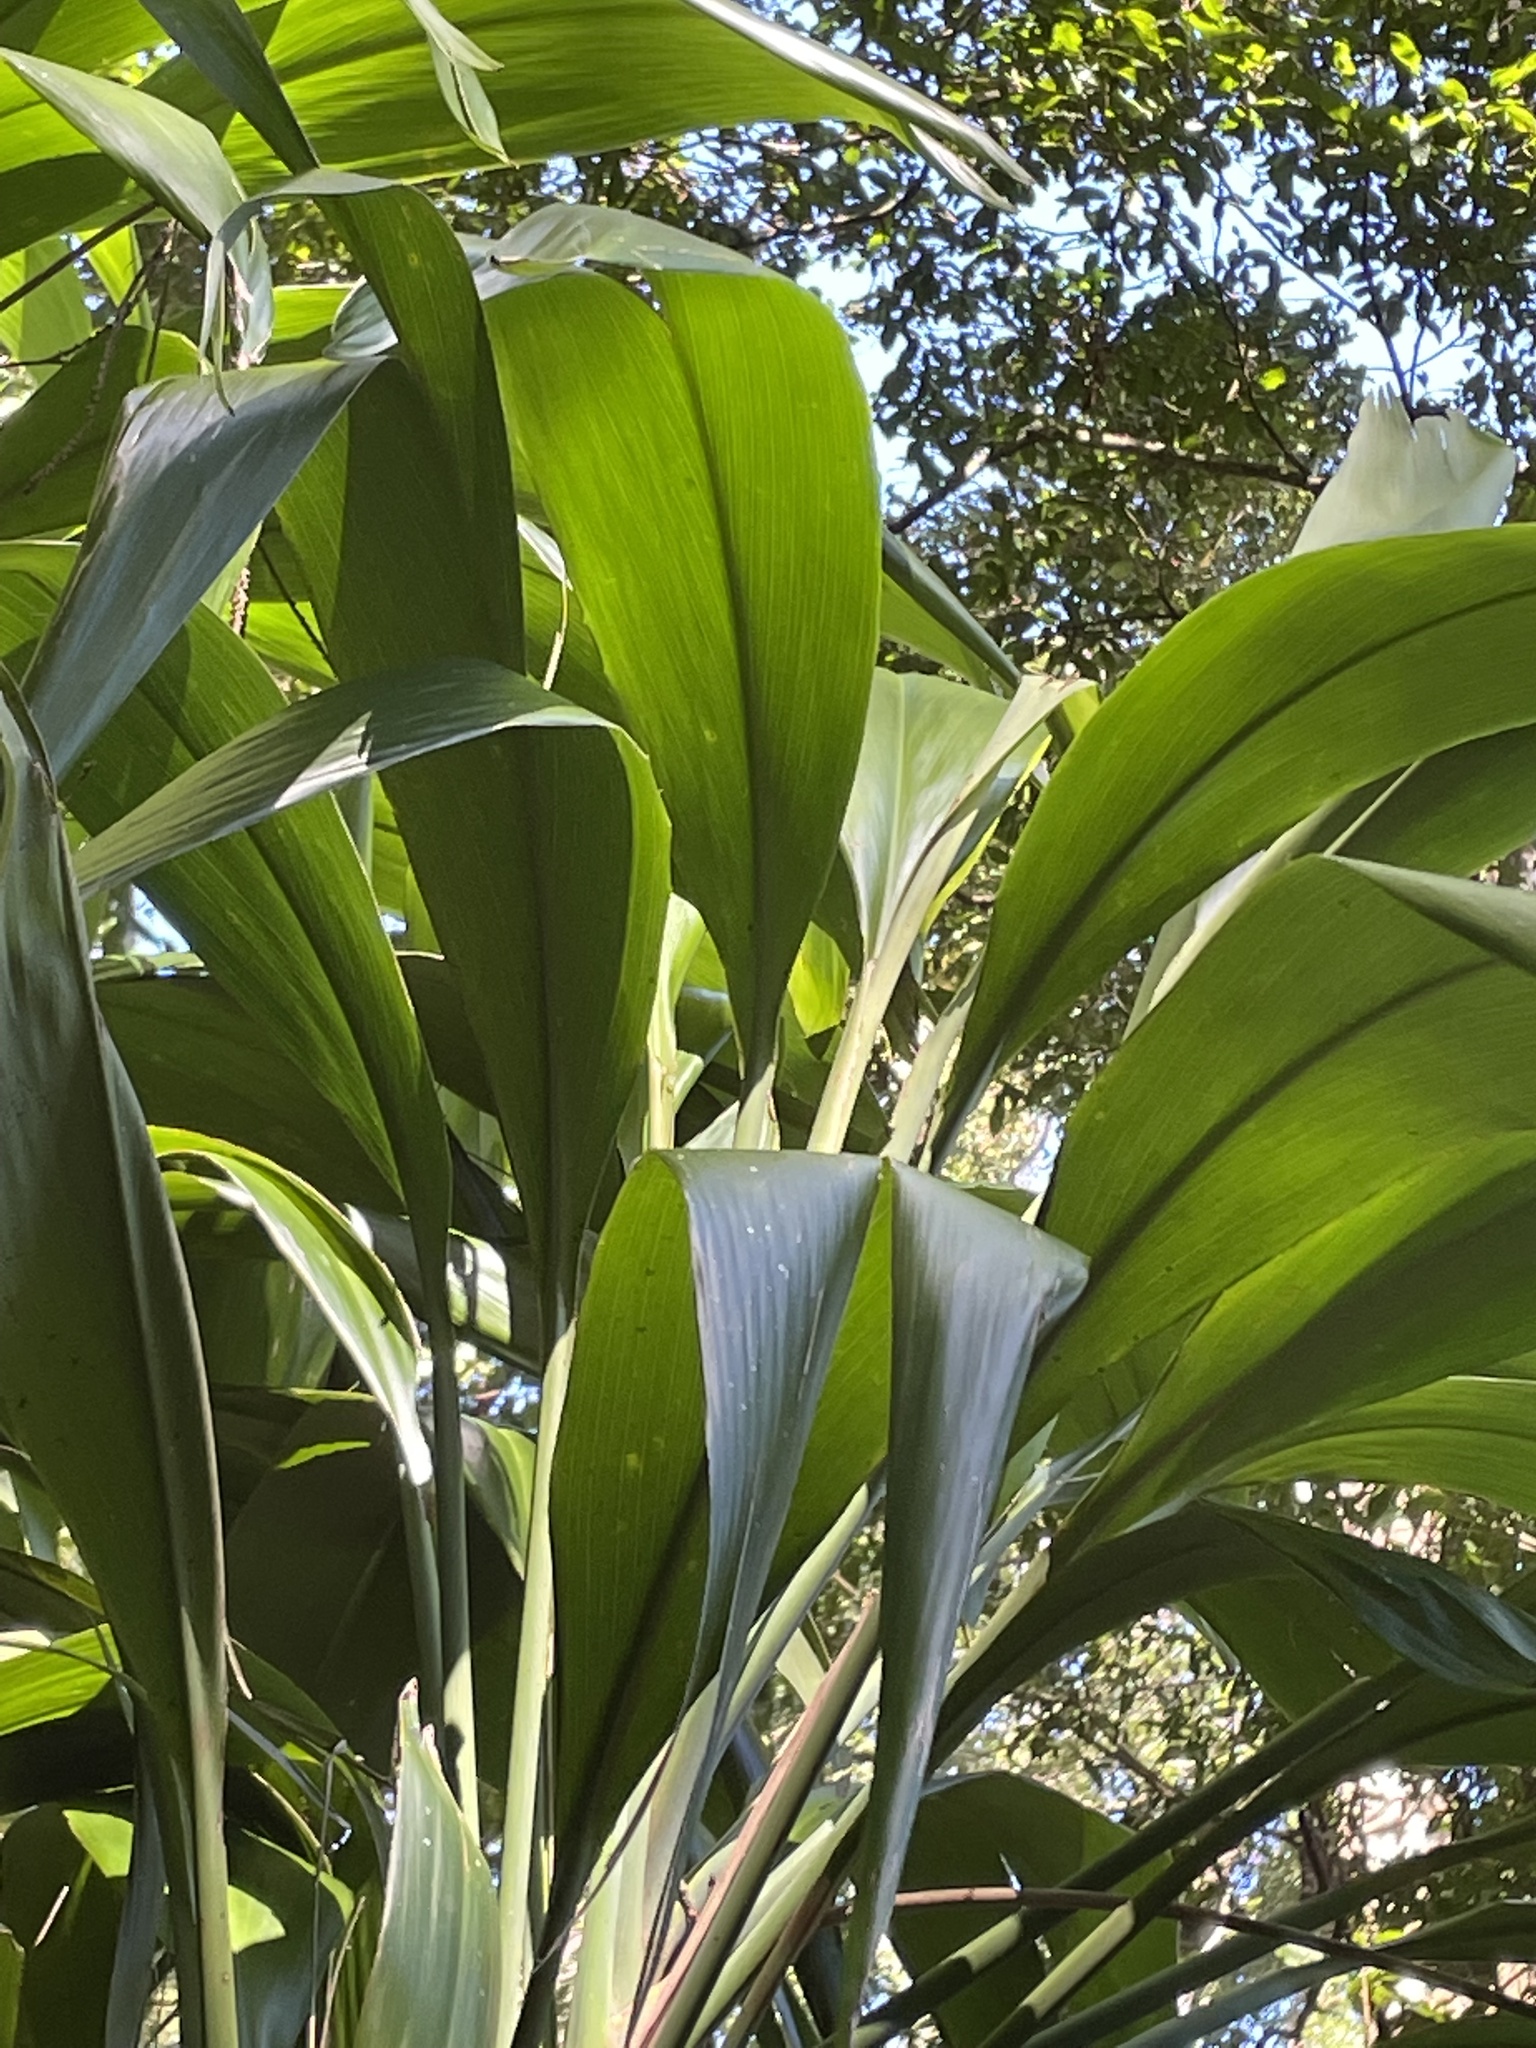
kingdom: Plantae
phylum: Tracheophyta
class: Liliopsida
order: Asparagales
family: Asparagaceae
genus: Cordyline
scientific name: Cordyline petiolaris
